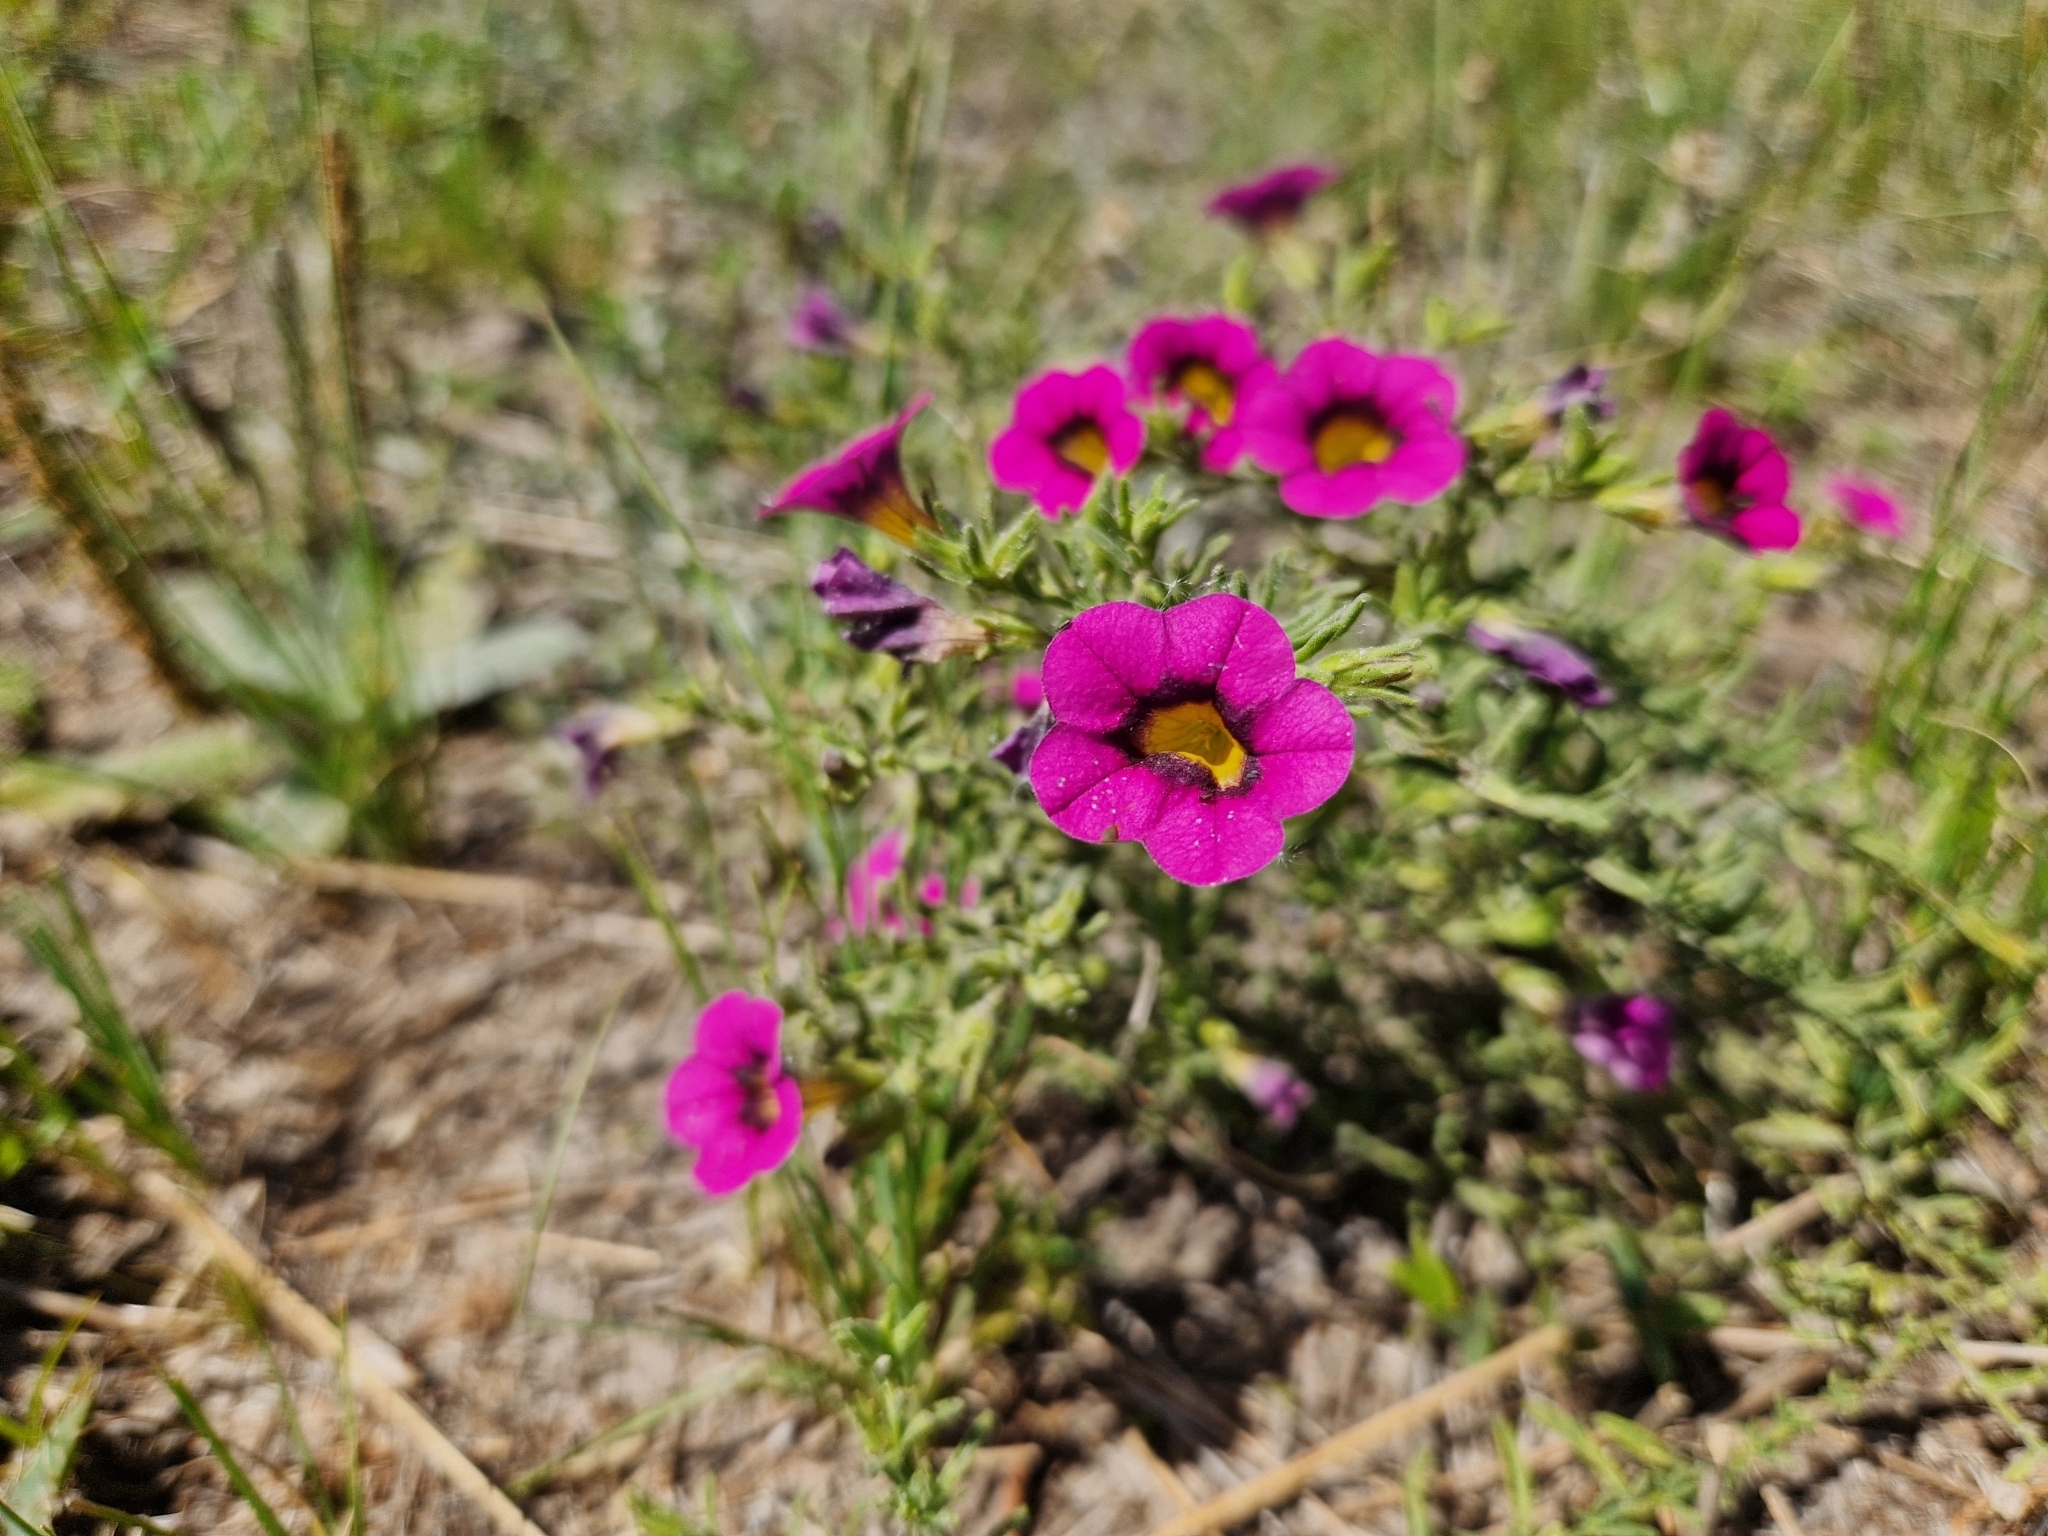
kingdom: Plantae
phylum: Tracheophyta
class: Magnoliopsida
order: Solanales
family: Solanaceae
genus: Calibrachoa
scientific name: Calibrachoa thymifolia
